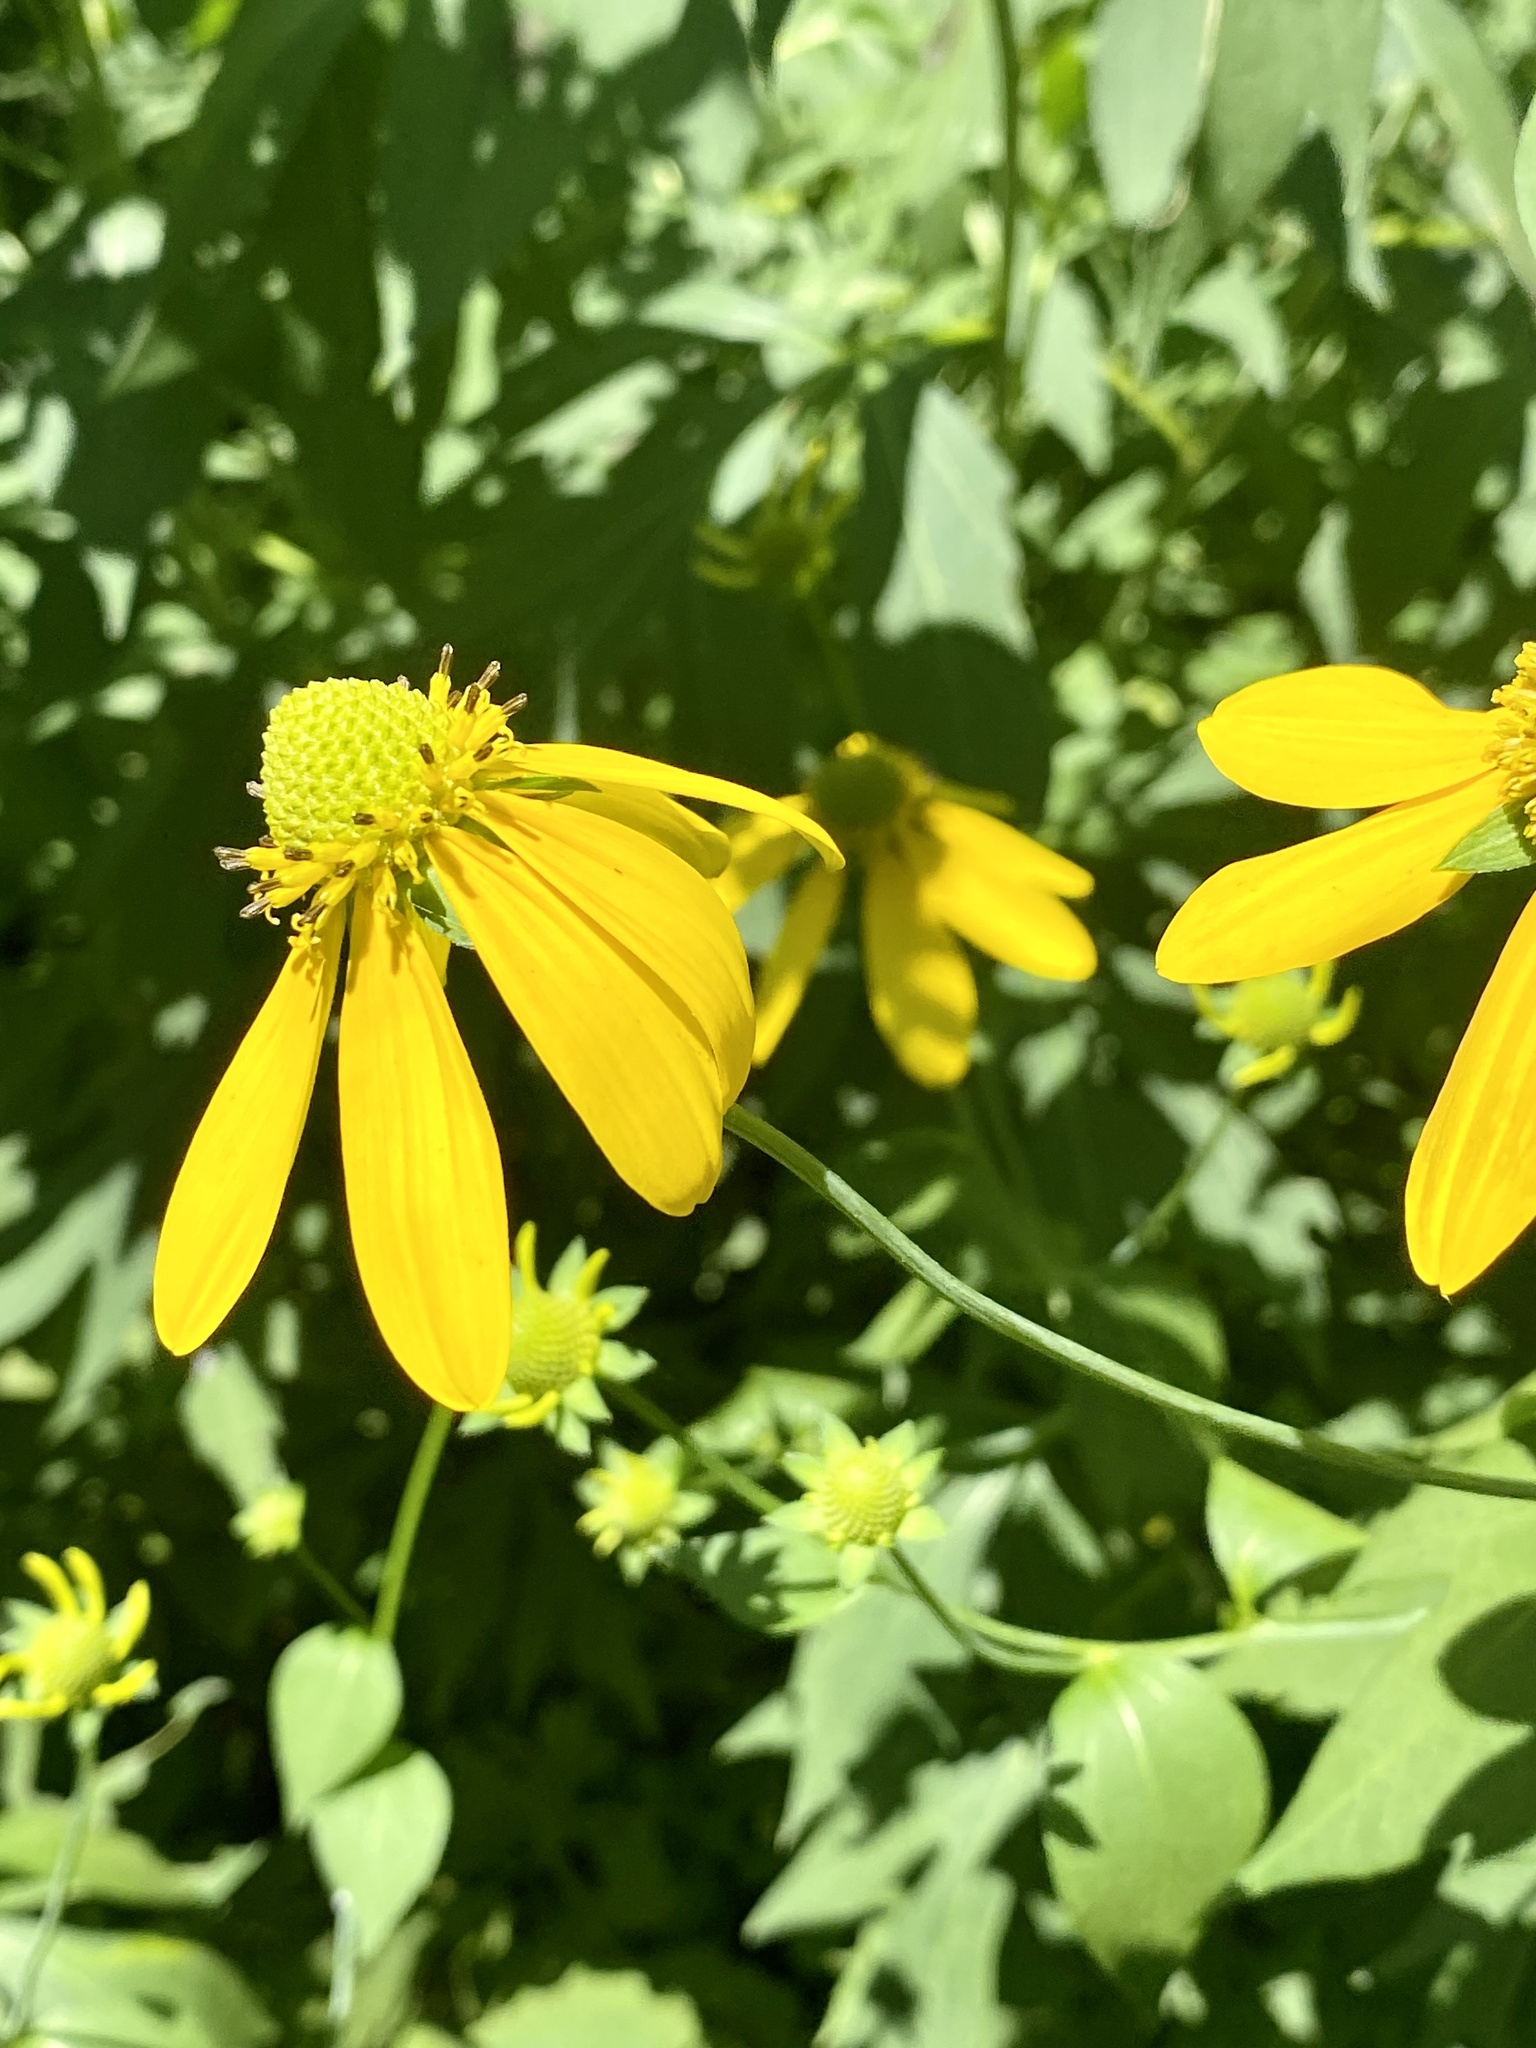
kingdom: Plantae
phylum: Tracheophyta
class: Magnoliopsida
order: Asterales
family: Asteraceae
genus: Rudbeckia
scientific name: Rudbeckia laciniata
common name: Coneflower
